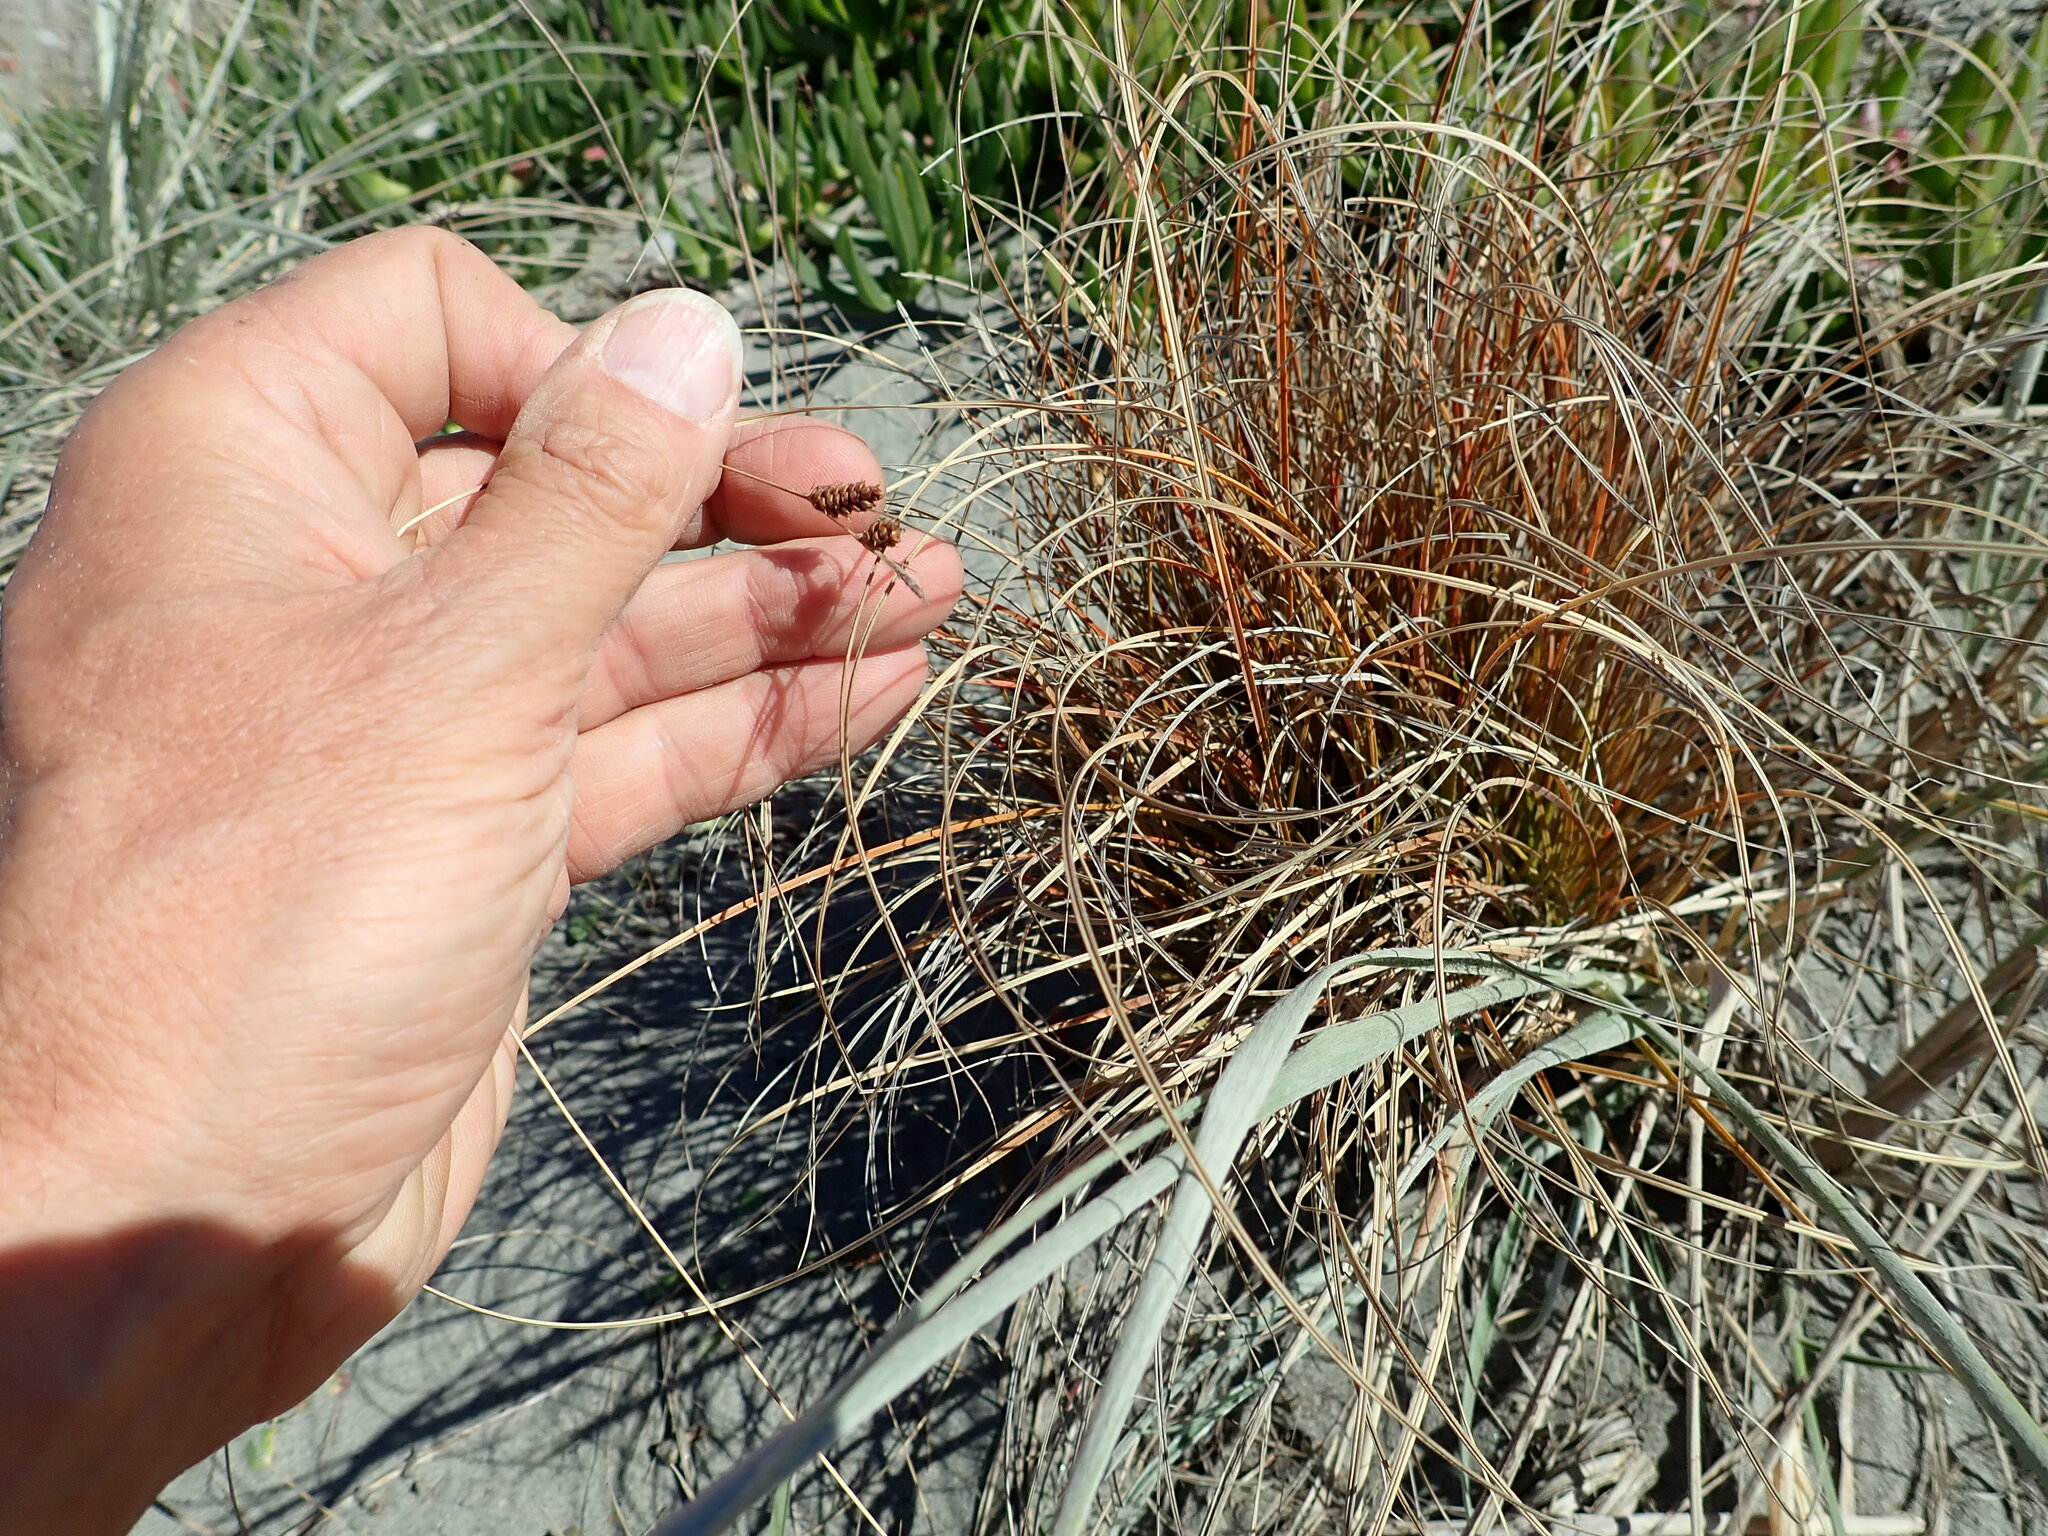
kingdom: Plantae
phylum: Tracheophyta
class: Liliopsida
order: Poales
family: Cyperaceae
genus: Carex
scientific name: Carex testacea
